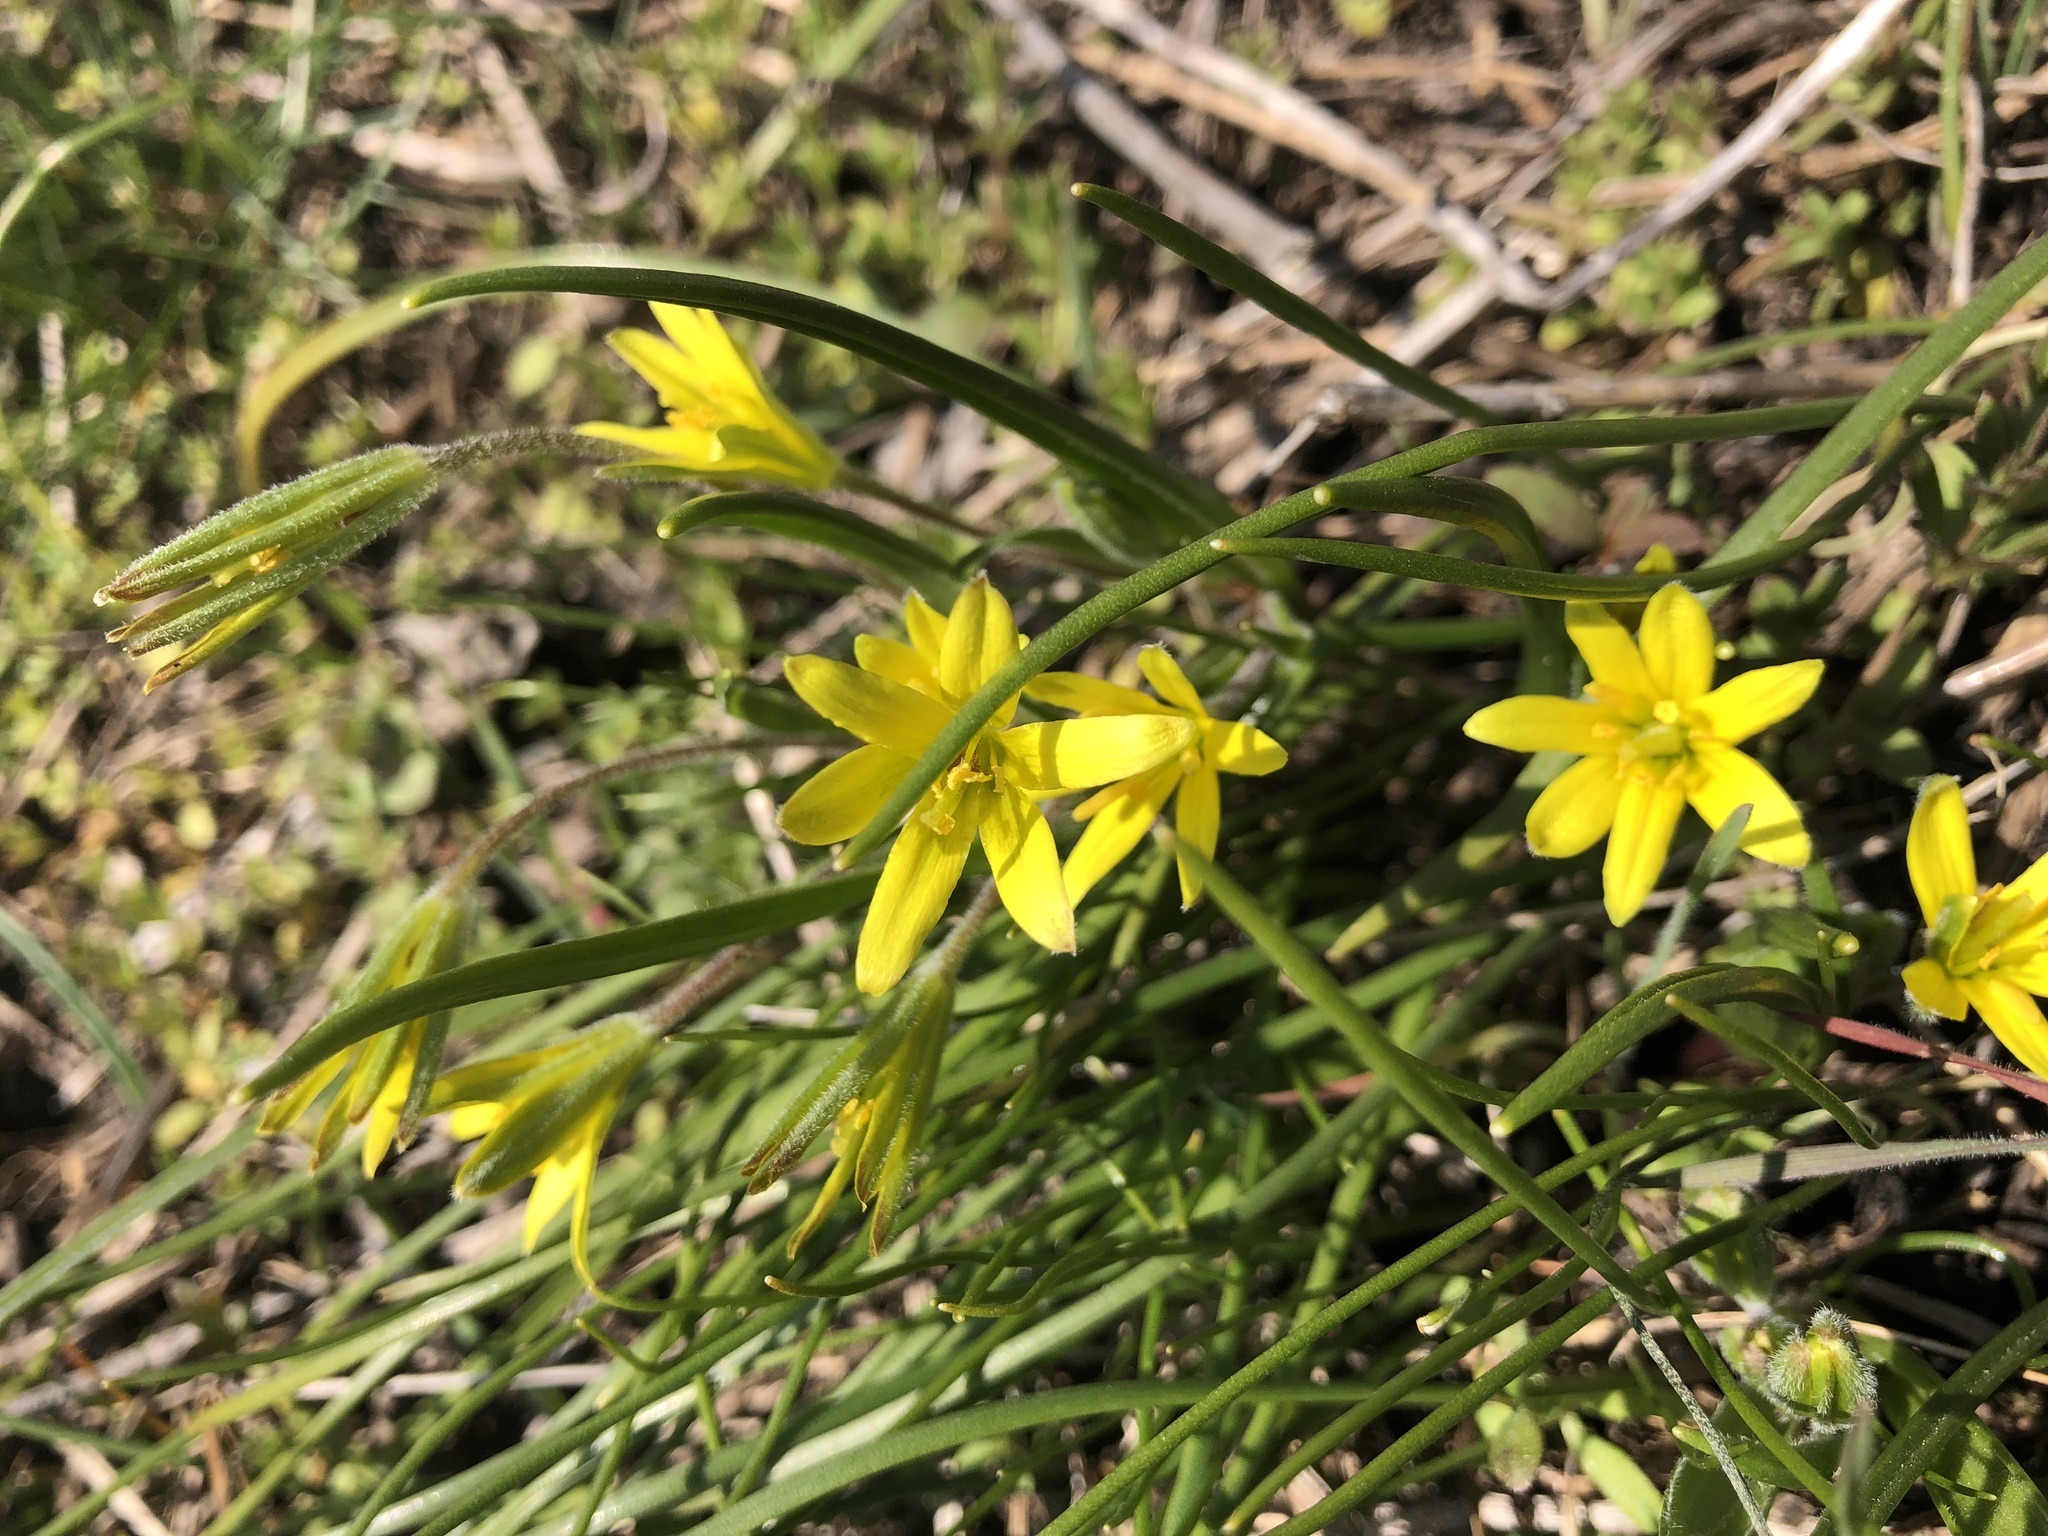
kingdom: Plantae
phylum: Tracheophyta
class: Liliopsida
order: Liliales
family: Liliaceae
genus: Gagea
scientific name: Gagea villosa
